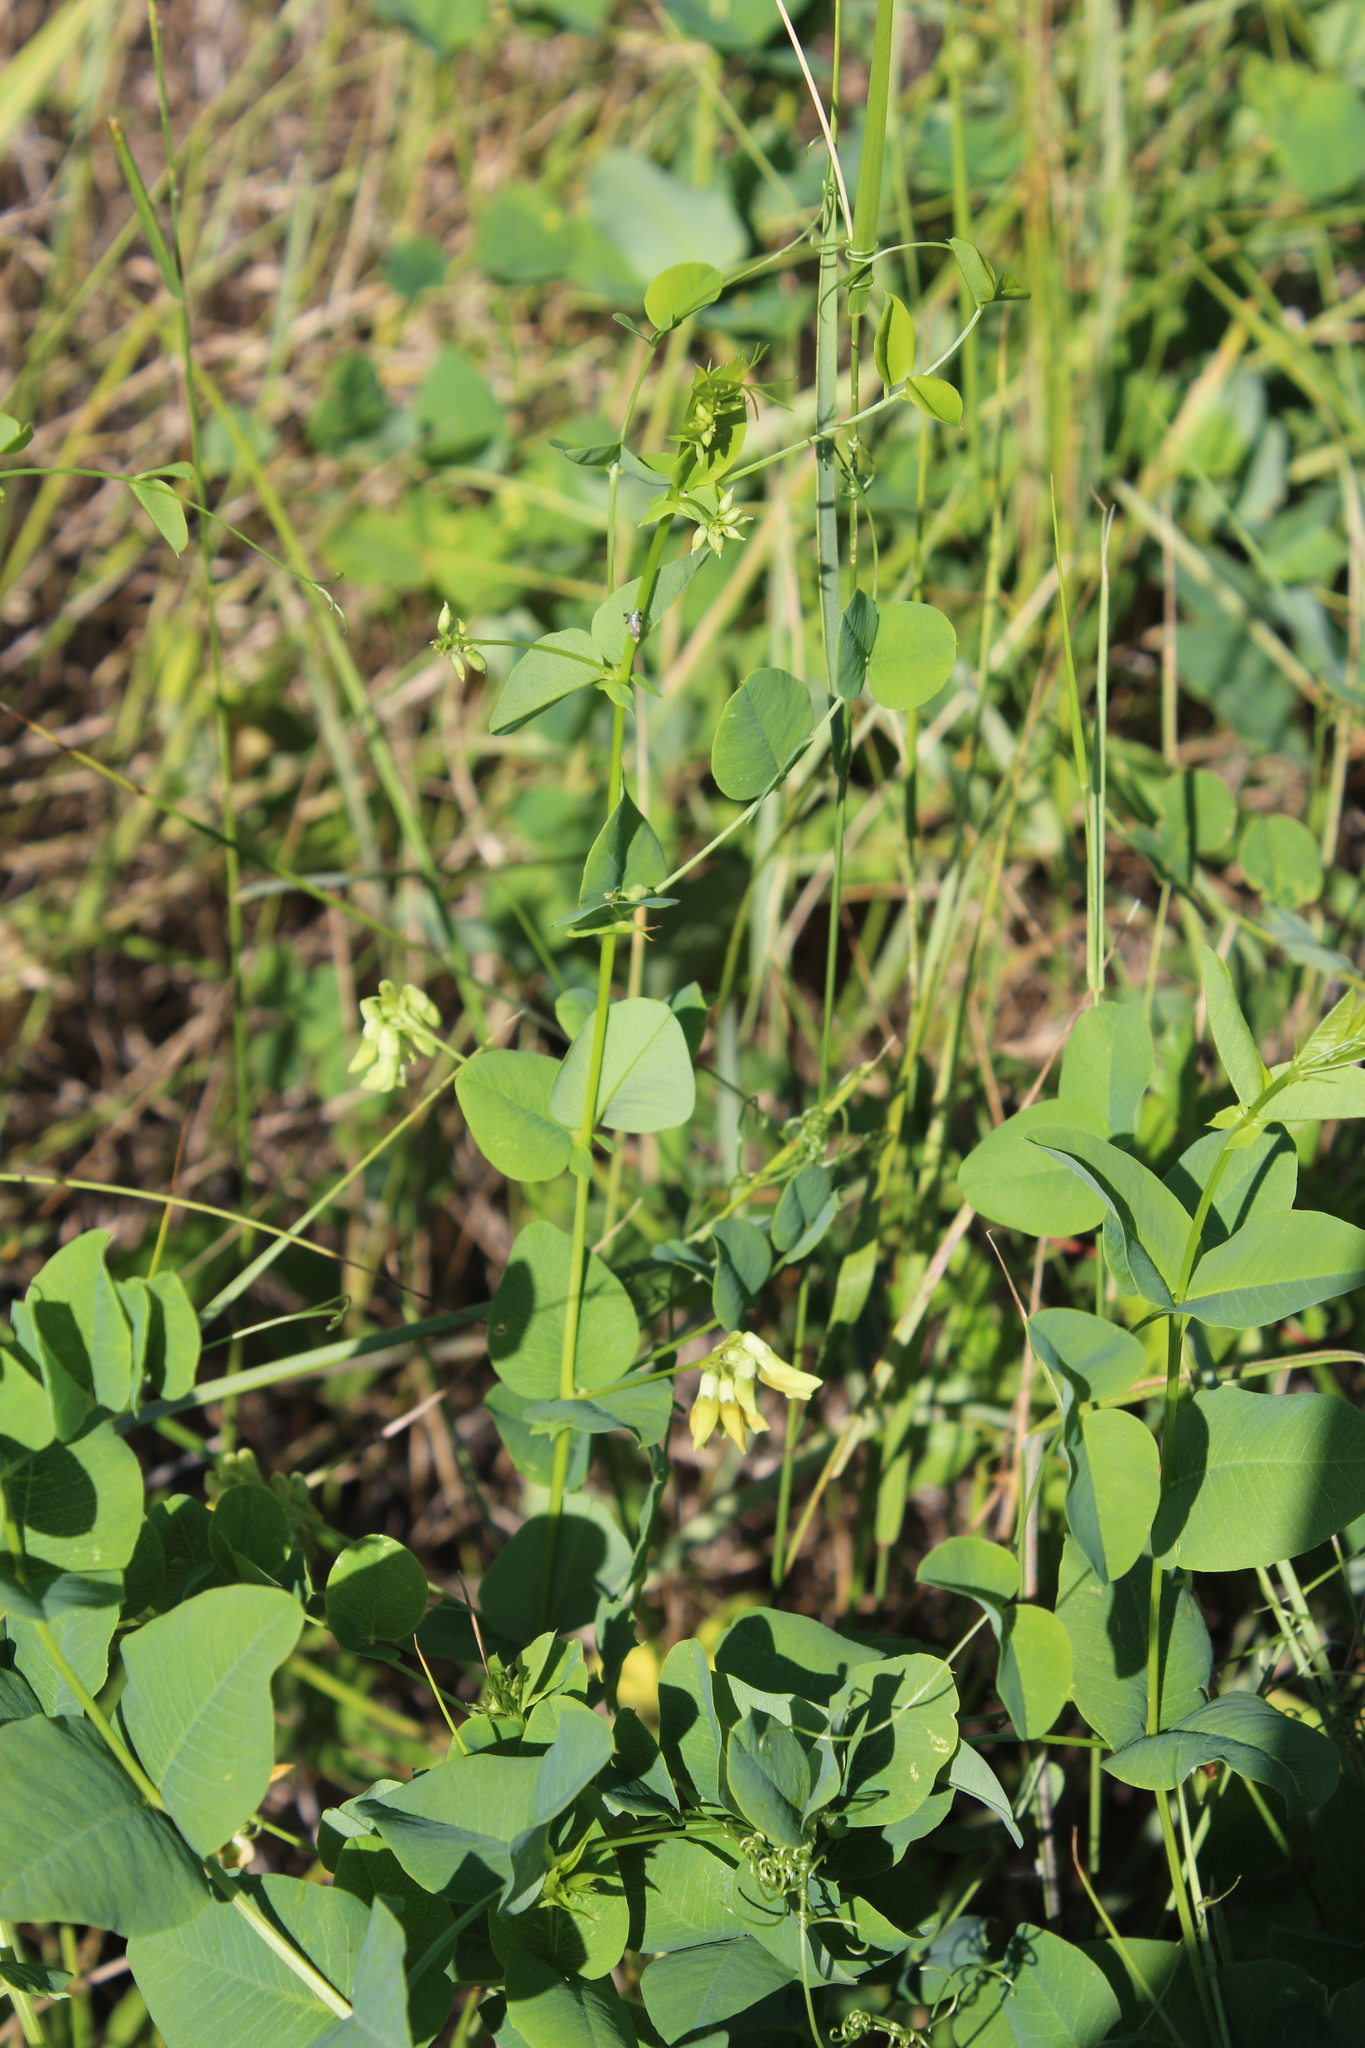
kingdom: Plantae
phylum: Tracheophyta
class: Magnoliopsida
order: Fabales
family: Fabaceae
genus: Vicia
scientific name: Vicia pisiformis
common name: Pale-flower vetch
